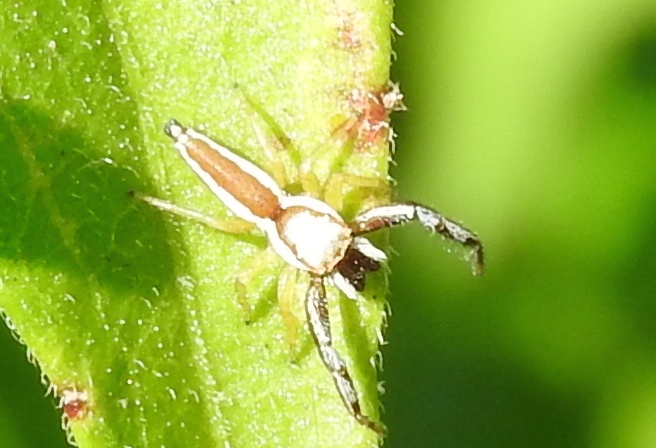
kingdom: Animalia
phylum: Arthropoda
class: Arachnida
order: Araneae
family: Salticidae
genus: Hentzia
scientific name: Hentzia palmarum
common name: Common hentz jumping spider
